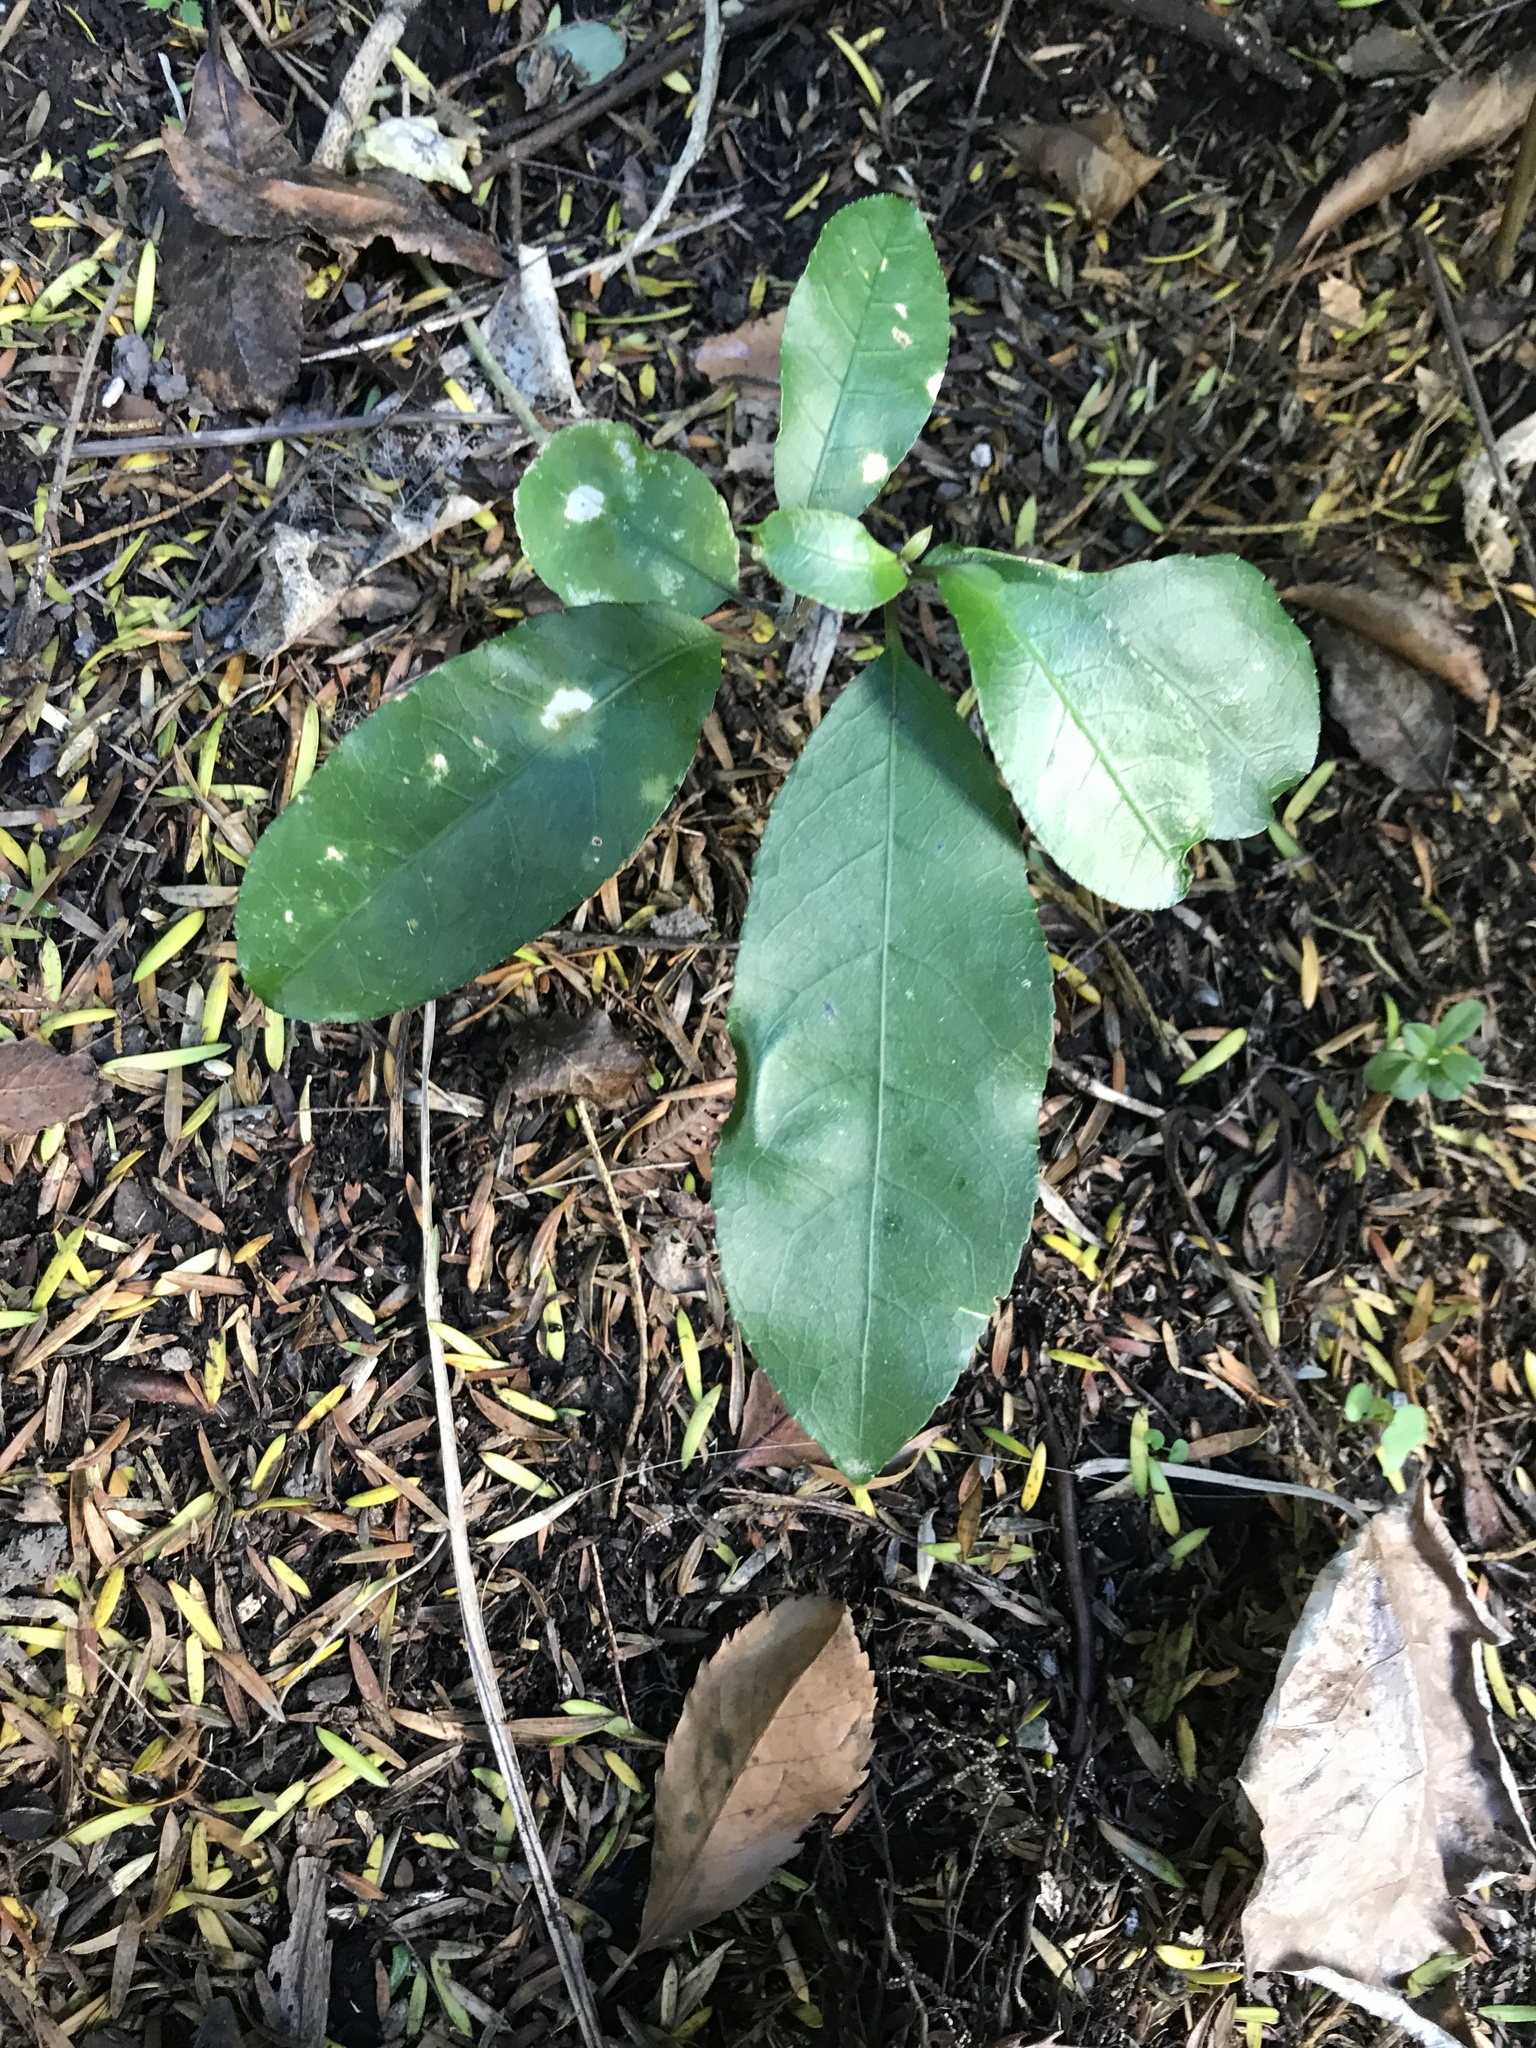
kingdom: Plantae
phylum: Tracheophyta
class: Magnoliopsida
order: Malpighiales
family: Violaceae
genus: Melicytus
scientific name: Melicytus ramiflorus
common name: Mahoe
